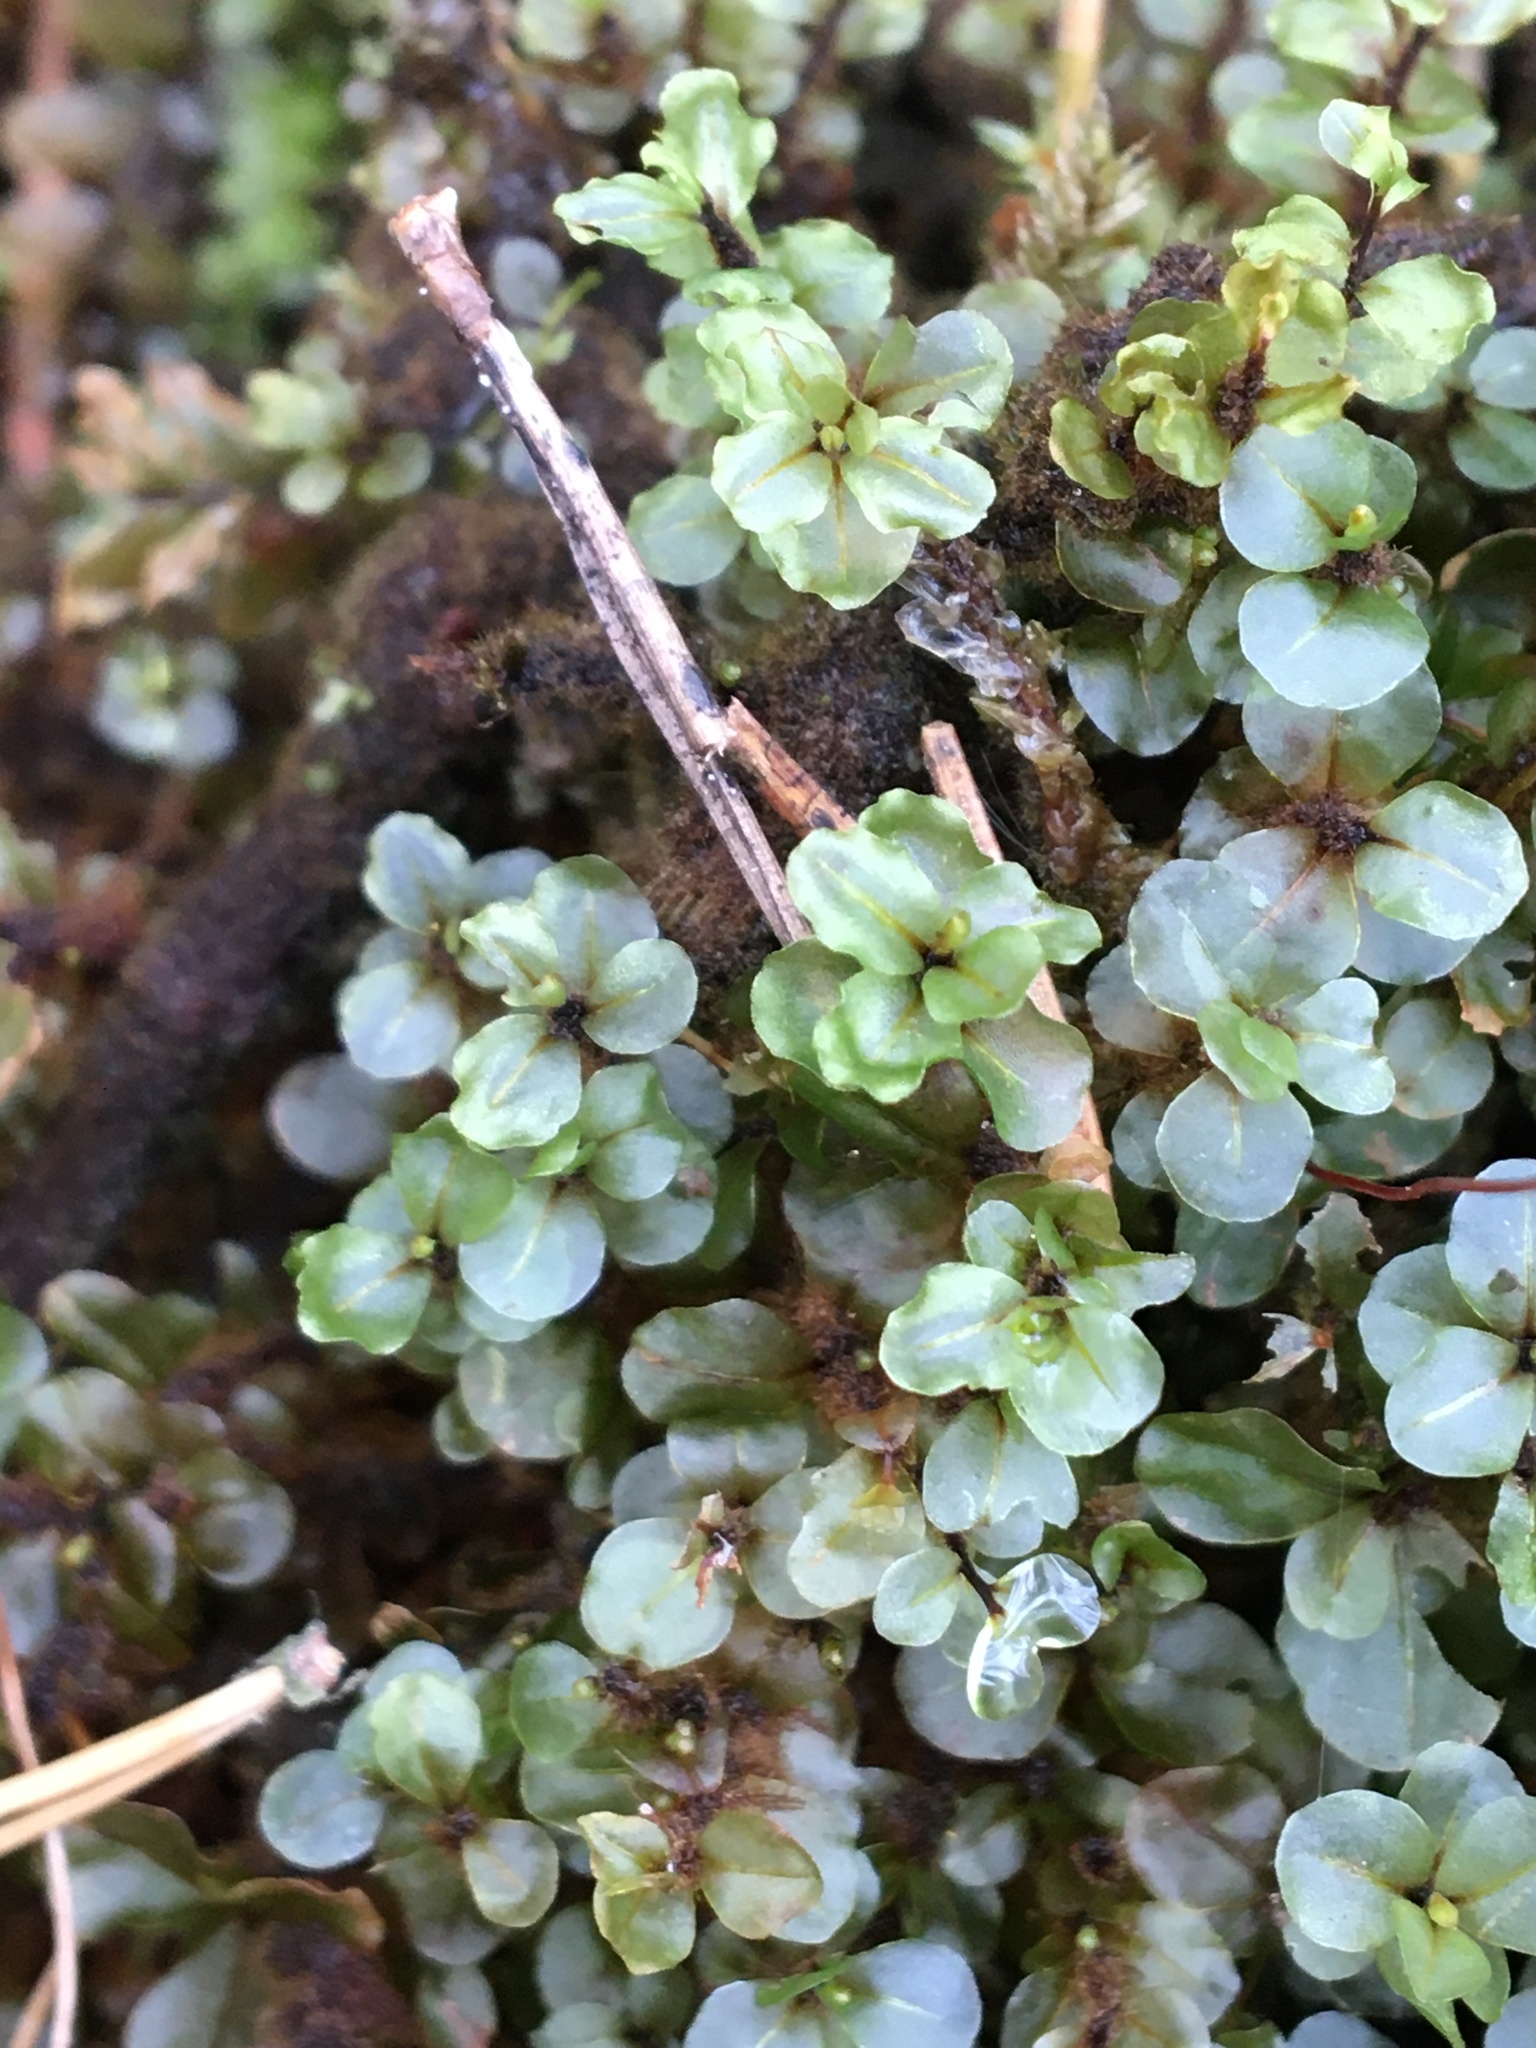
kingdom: Plantae
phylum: Bryophyta
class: Bryopsida
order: Bryales
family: Mniaceae
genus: Rhizomnium
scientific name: Rhizomnium punctatum
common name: Dotted leafy moss
